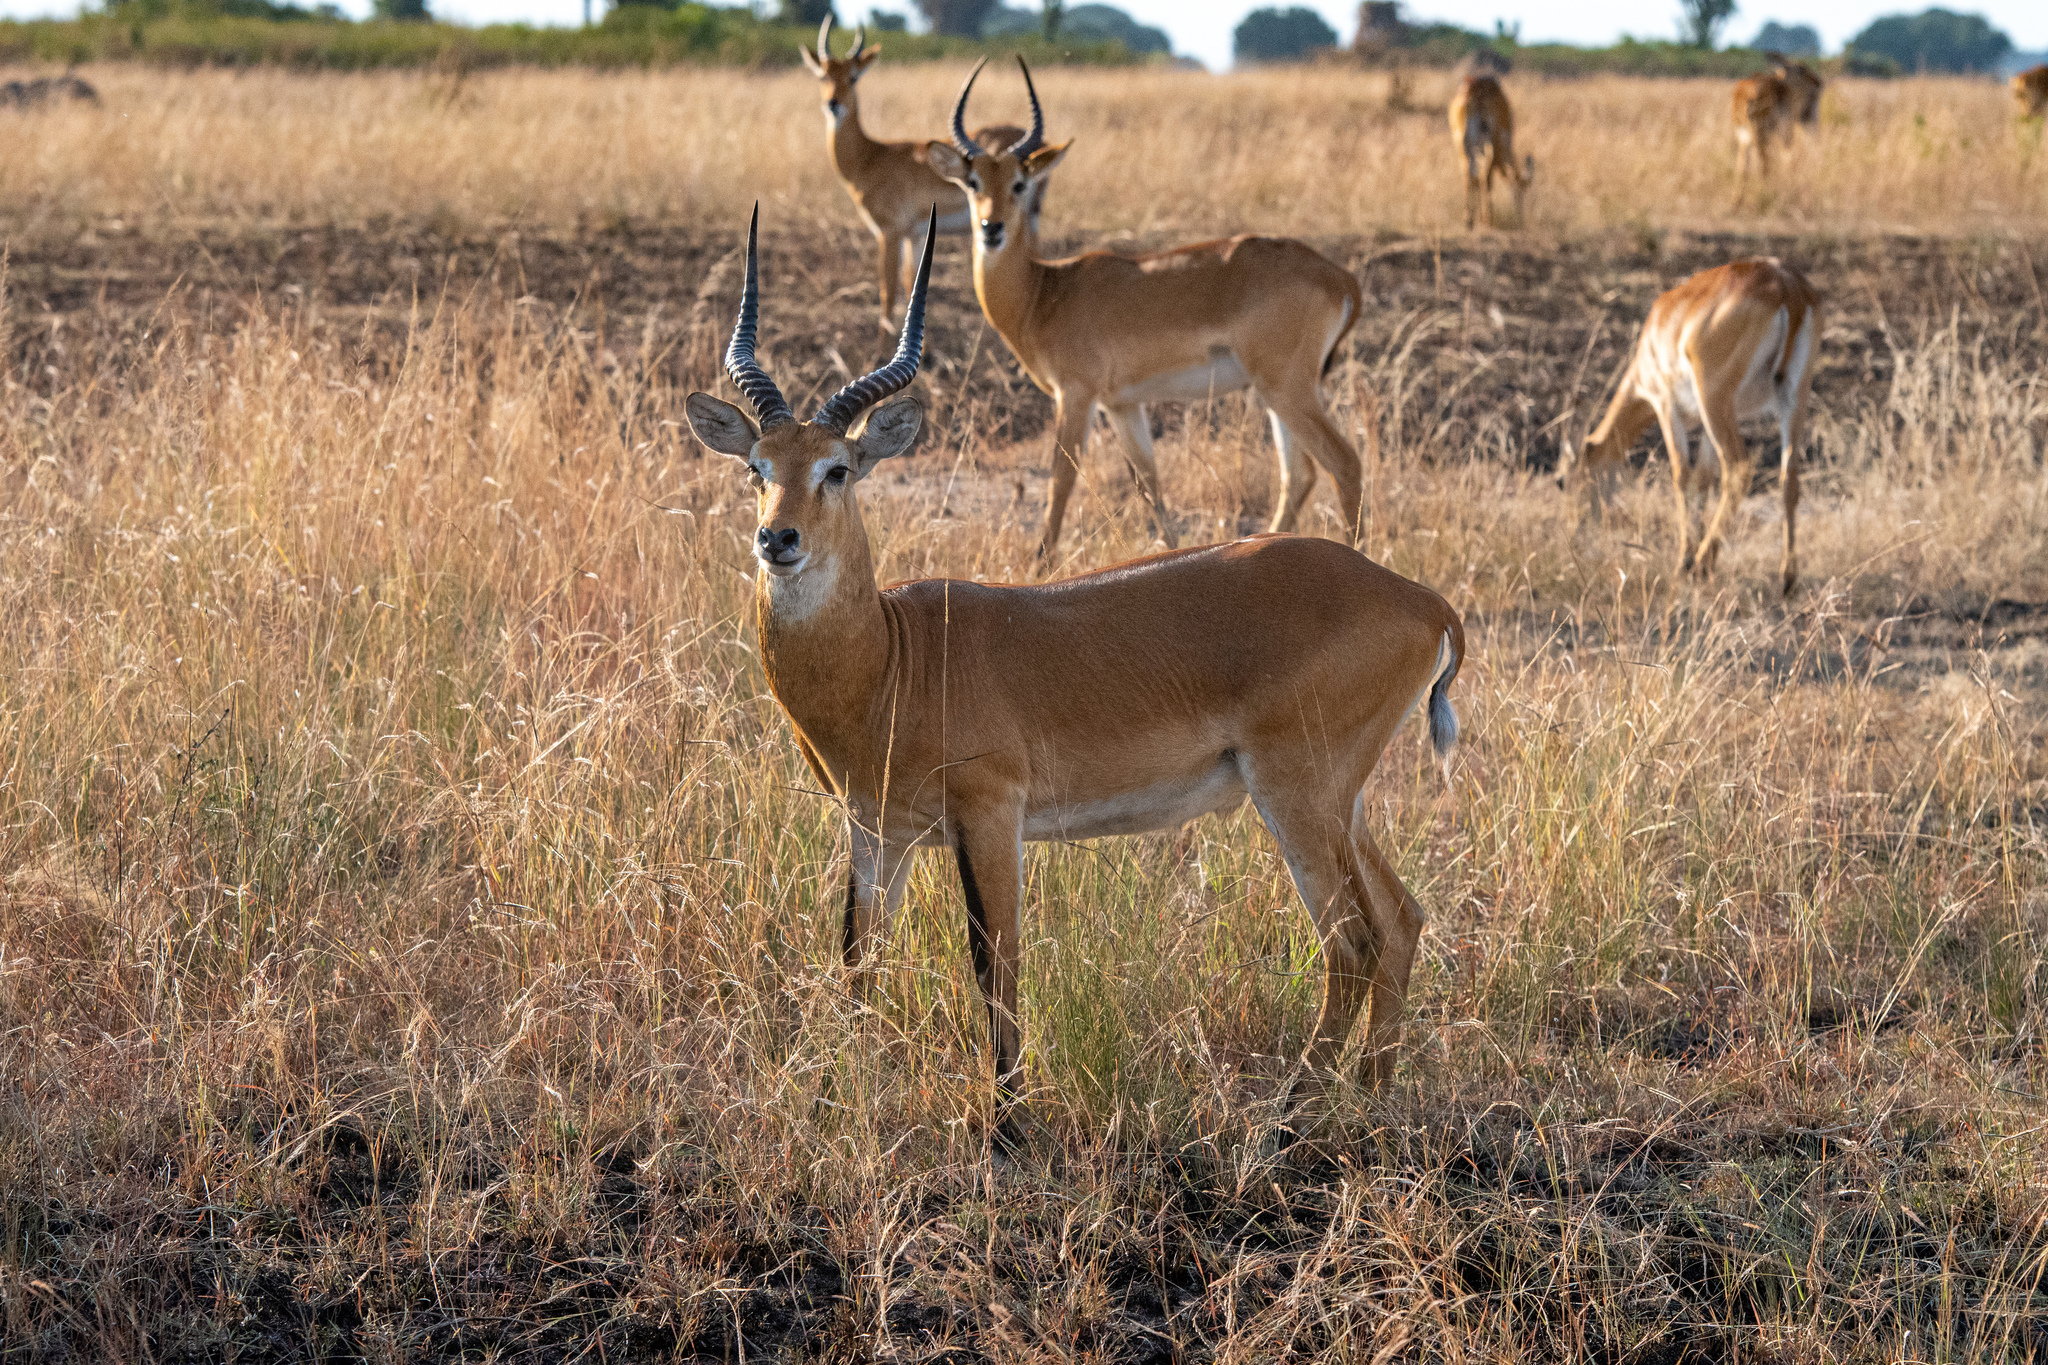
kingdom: Animalia
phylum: Chordata
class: Mammalia
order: Artiodactyla
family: Bovidae
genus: Kobus
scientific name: Kobus kob
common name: Kob
